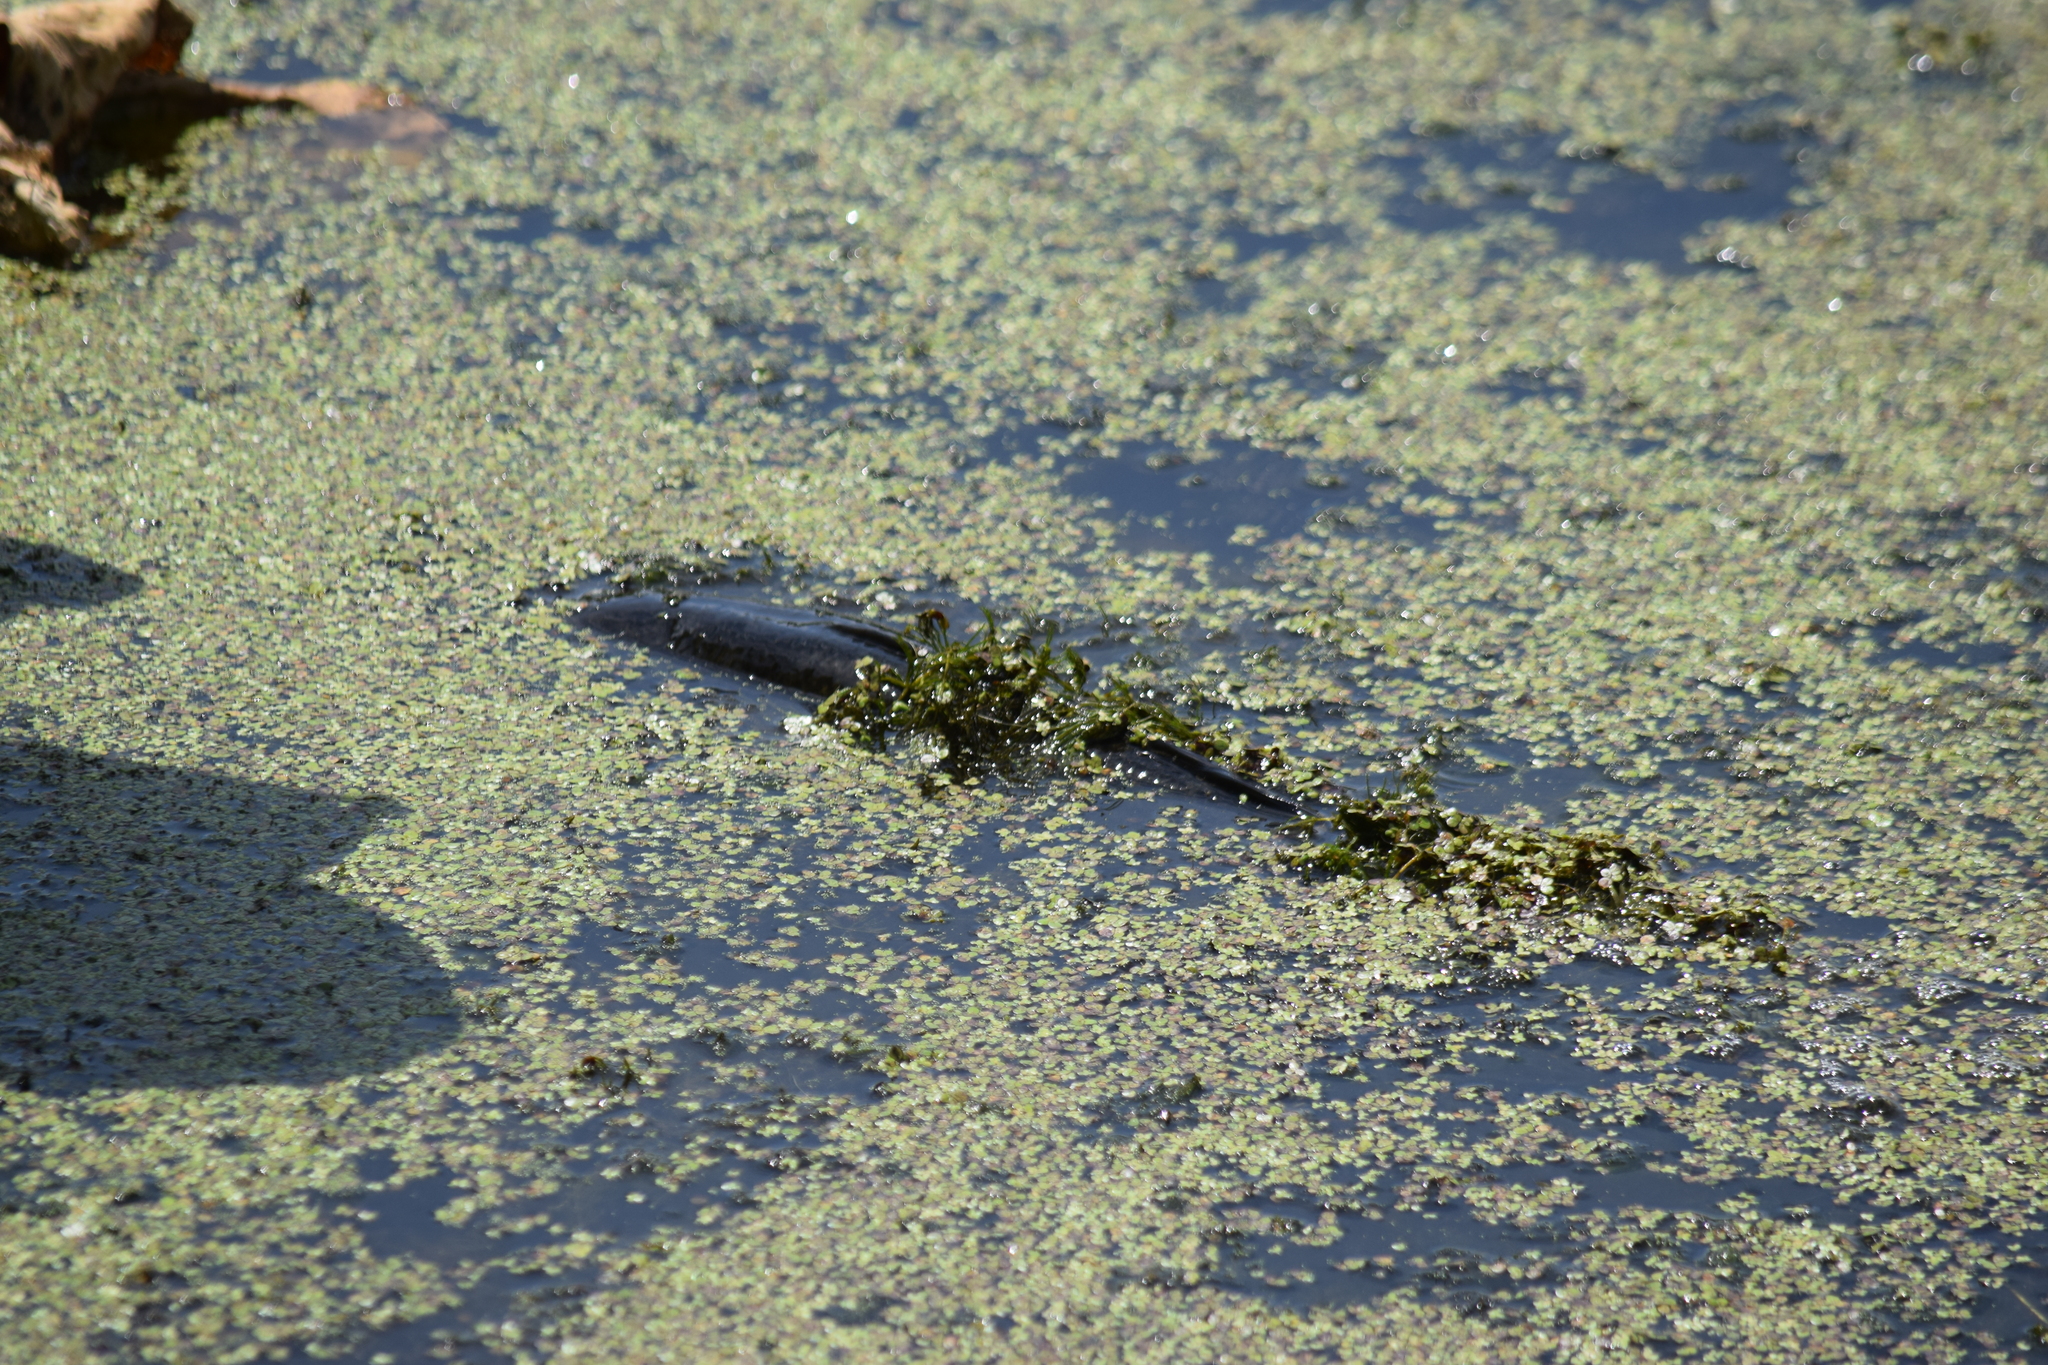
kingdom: Animalia
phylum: Chordata
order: Perciformes
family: Channidae
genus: Channa
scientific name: Channa argus
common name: Northern snakehead
